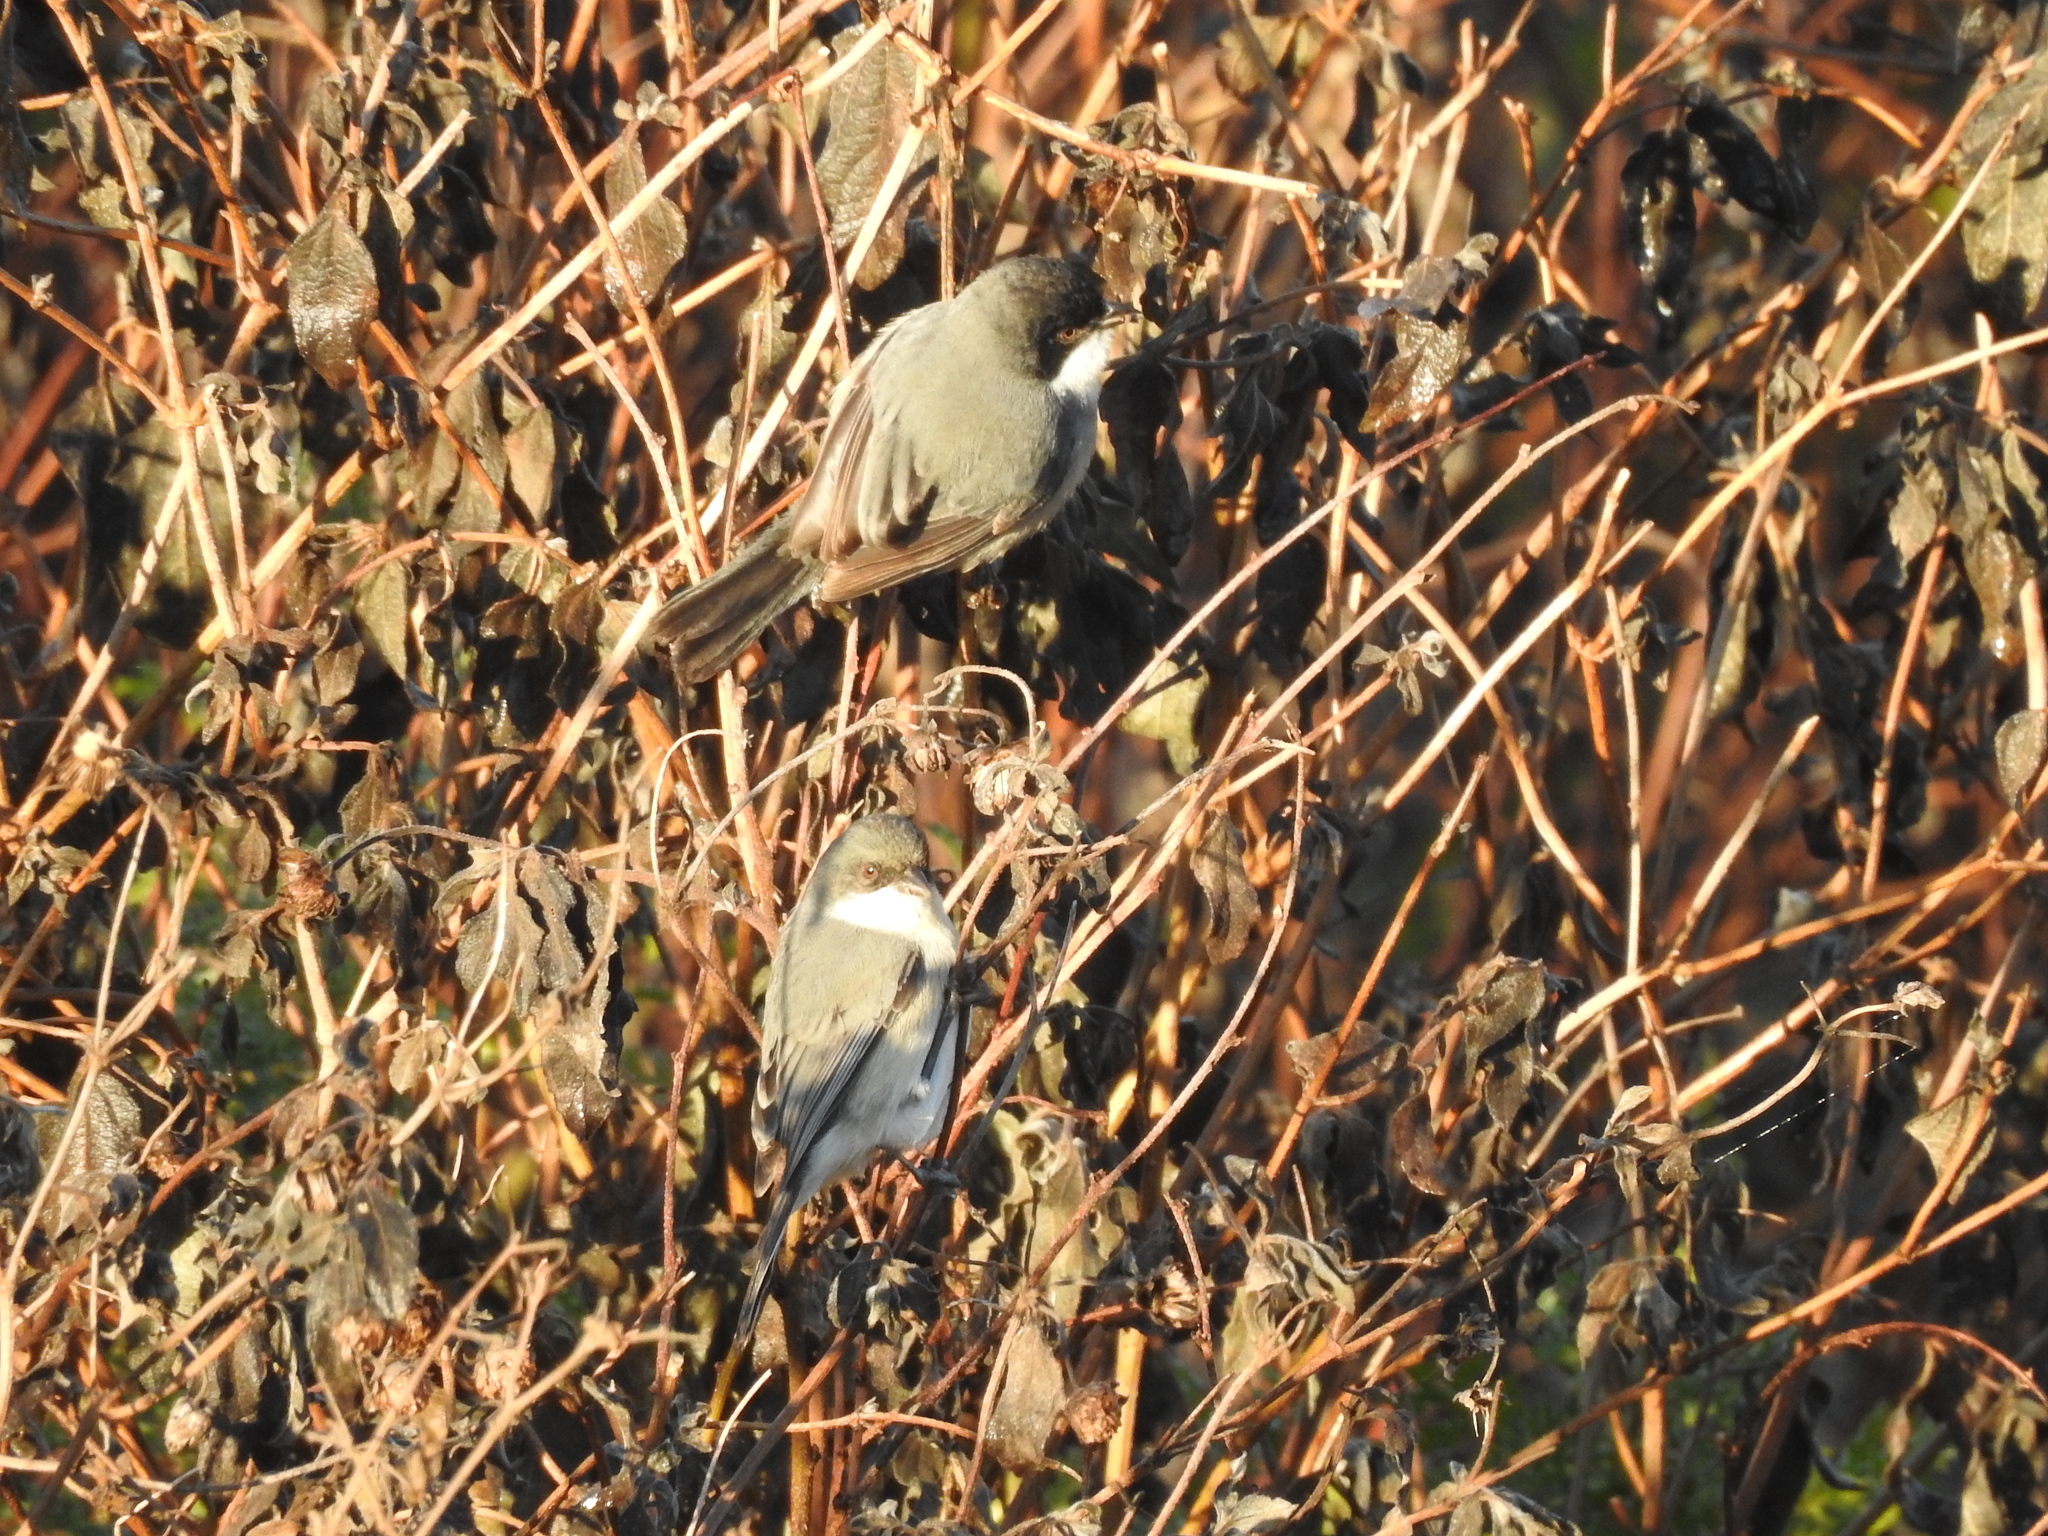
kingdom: Animalia
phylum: Chordata
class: Aves
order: Passeriformes
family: Thraupidae
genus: Microspingus
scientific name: Microspingus melanoleucus
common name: Black-capped warbling-finch
